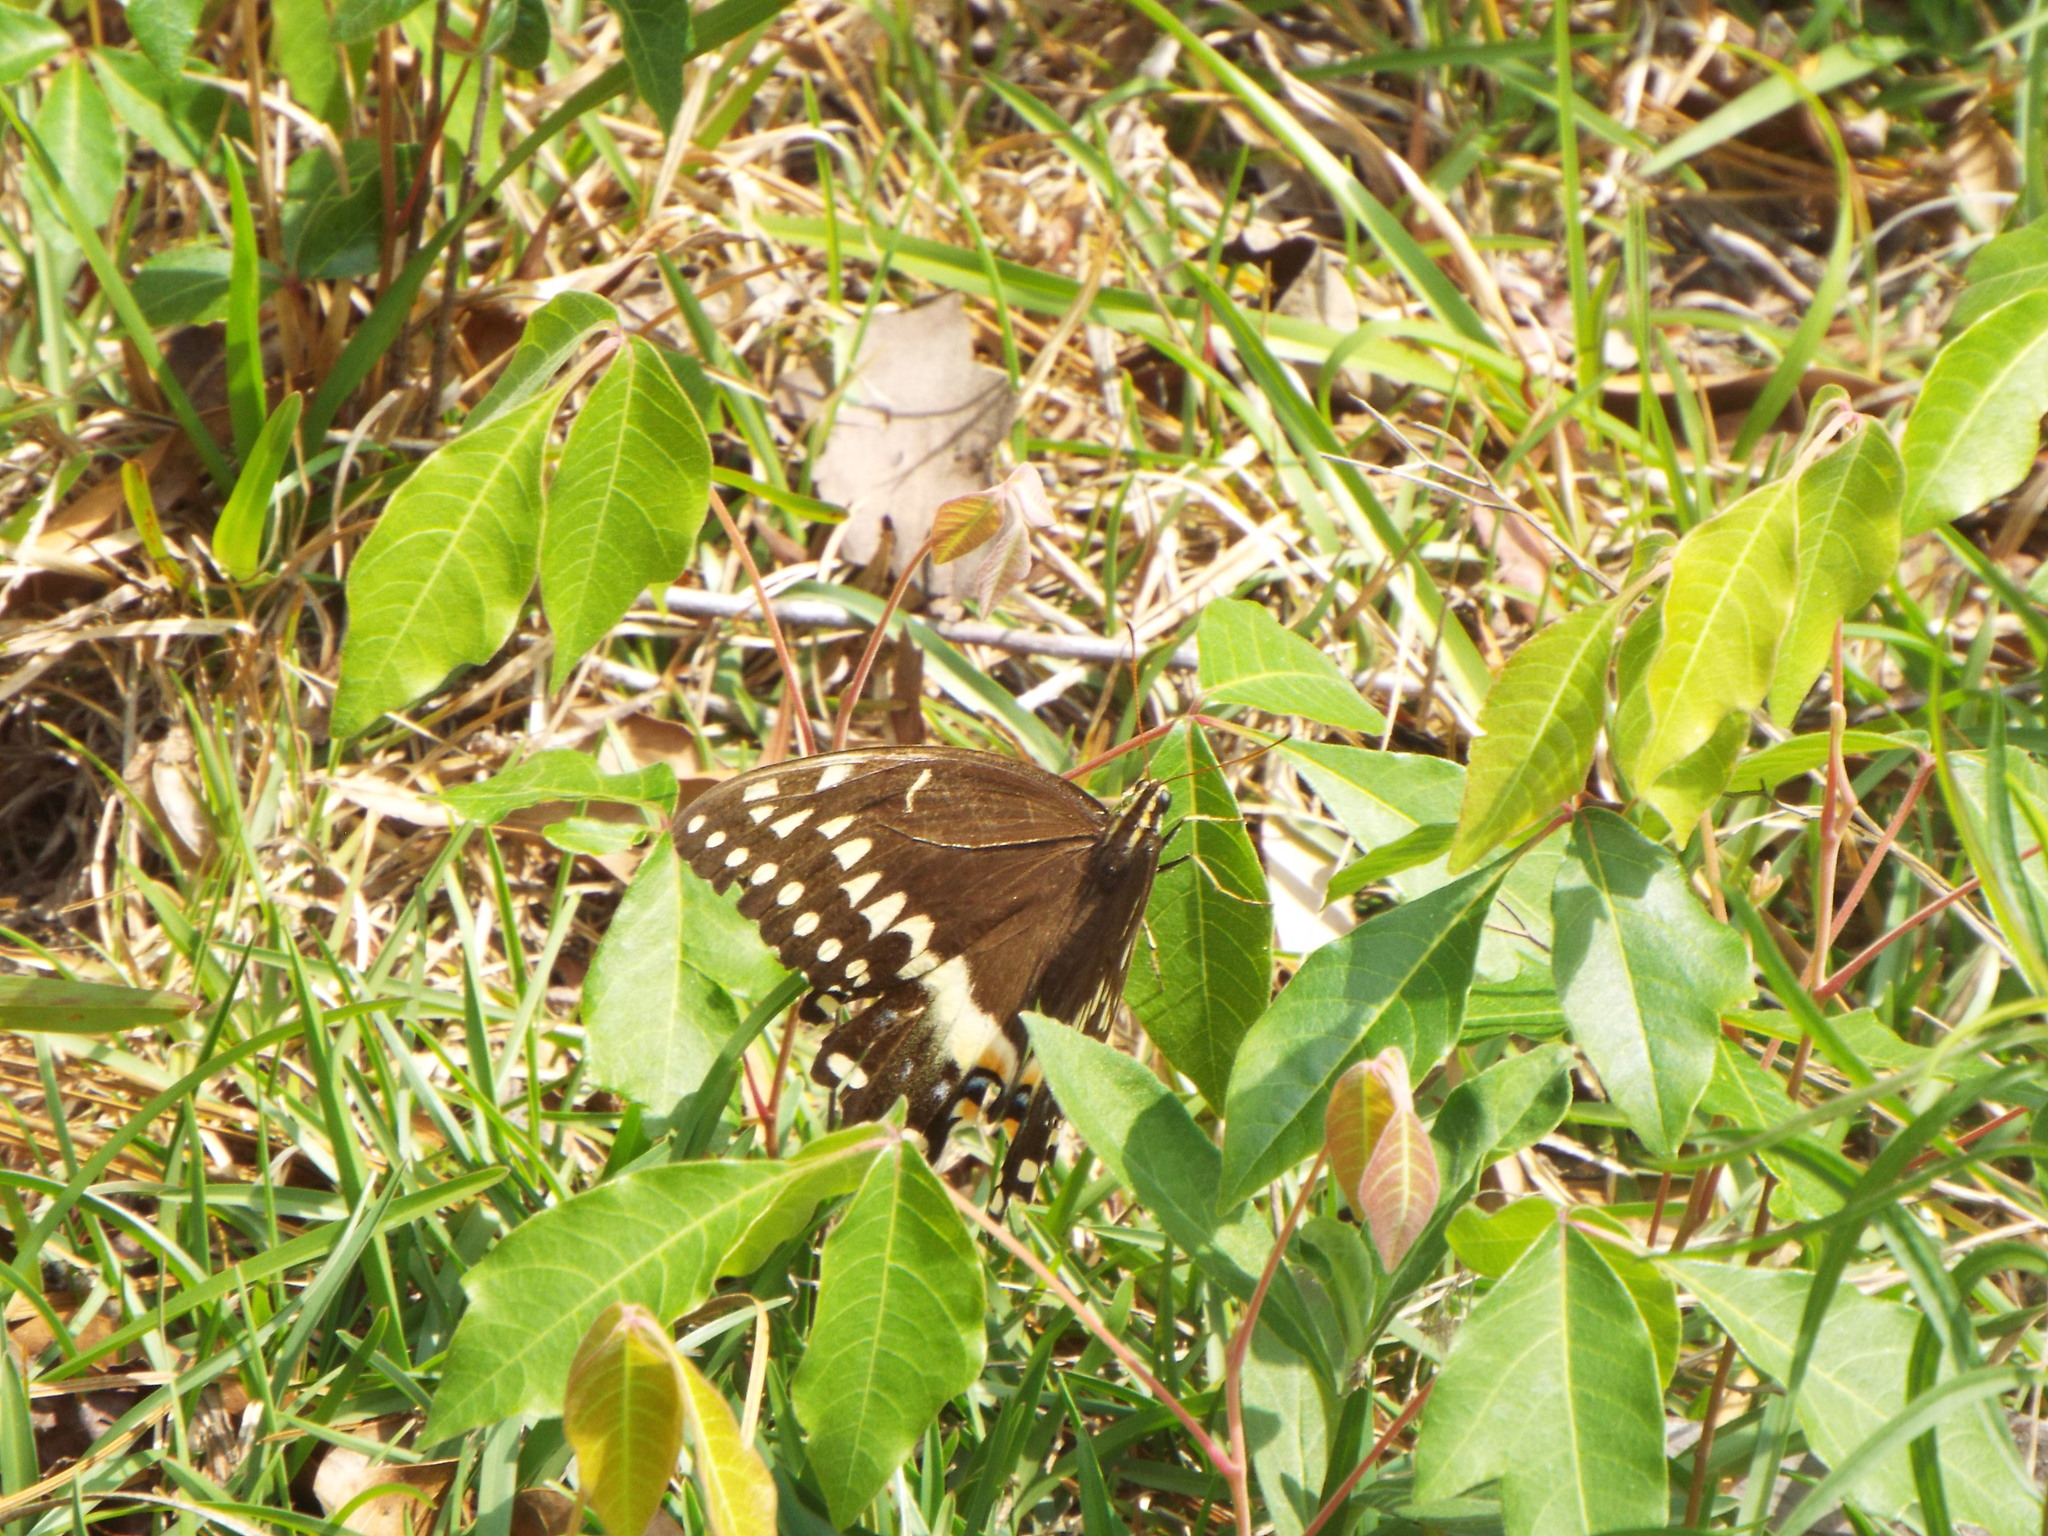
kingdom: Animalia
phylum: Arthropoda
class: Insecta
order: Lepidoptera
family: Papilionidae
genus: Papilio
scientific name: Papilio palamedes
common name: Palamedes swallowtail
